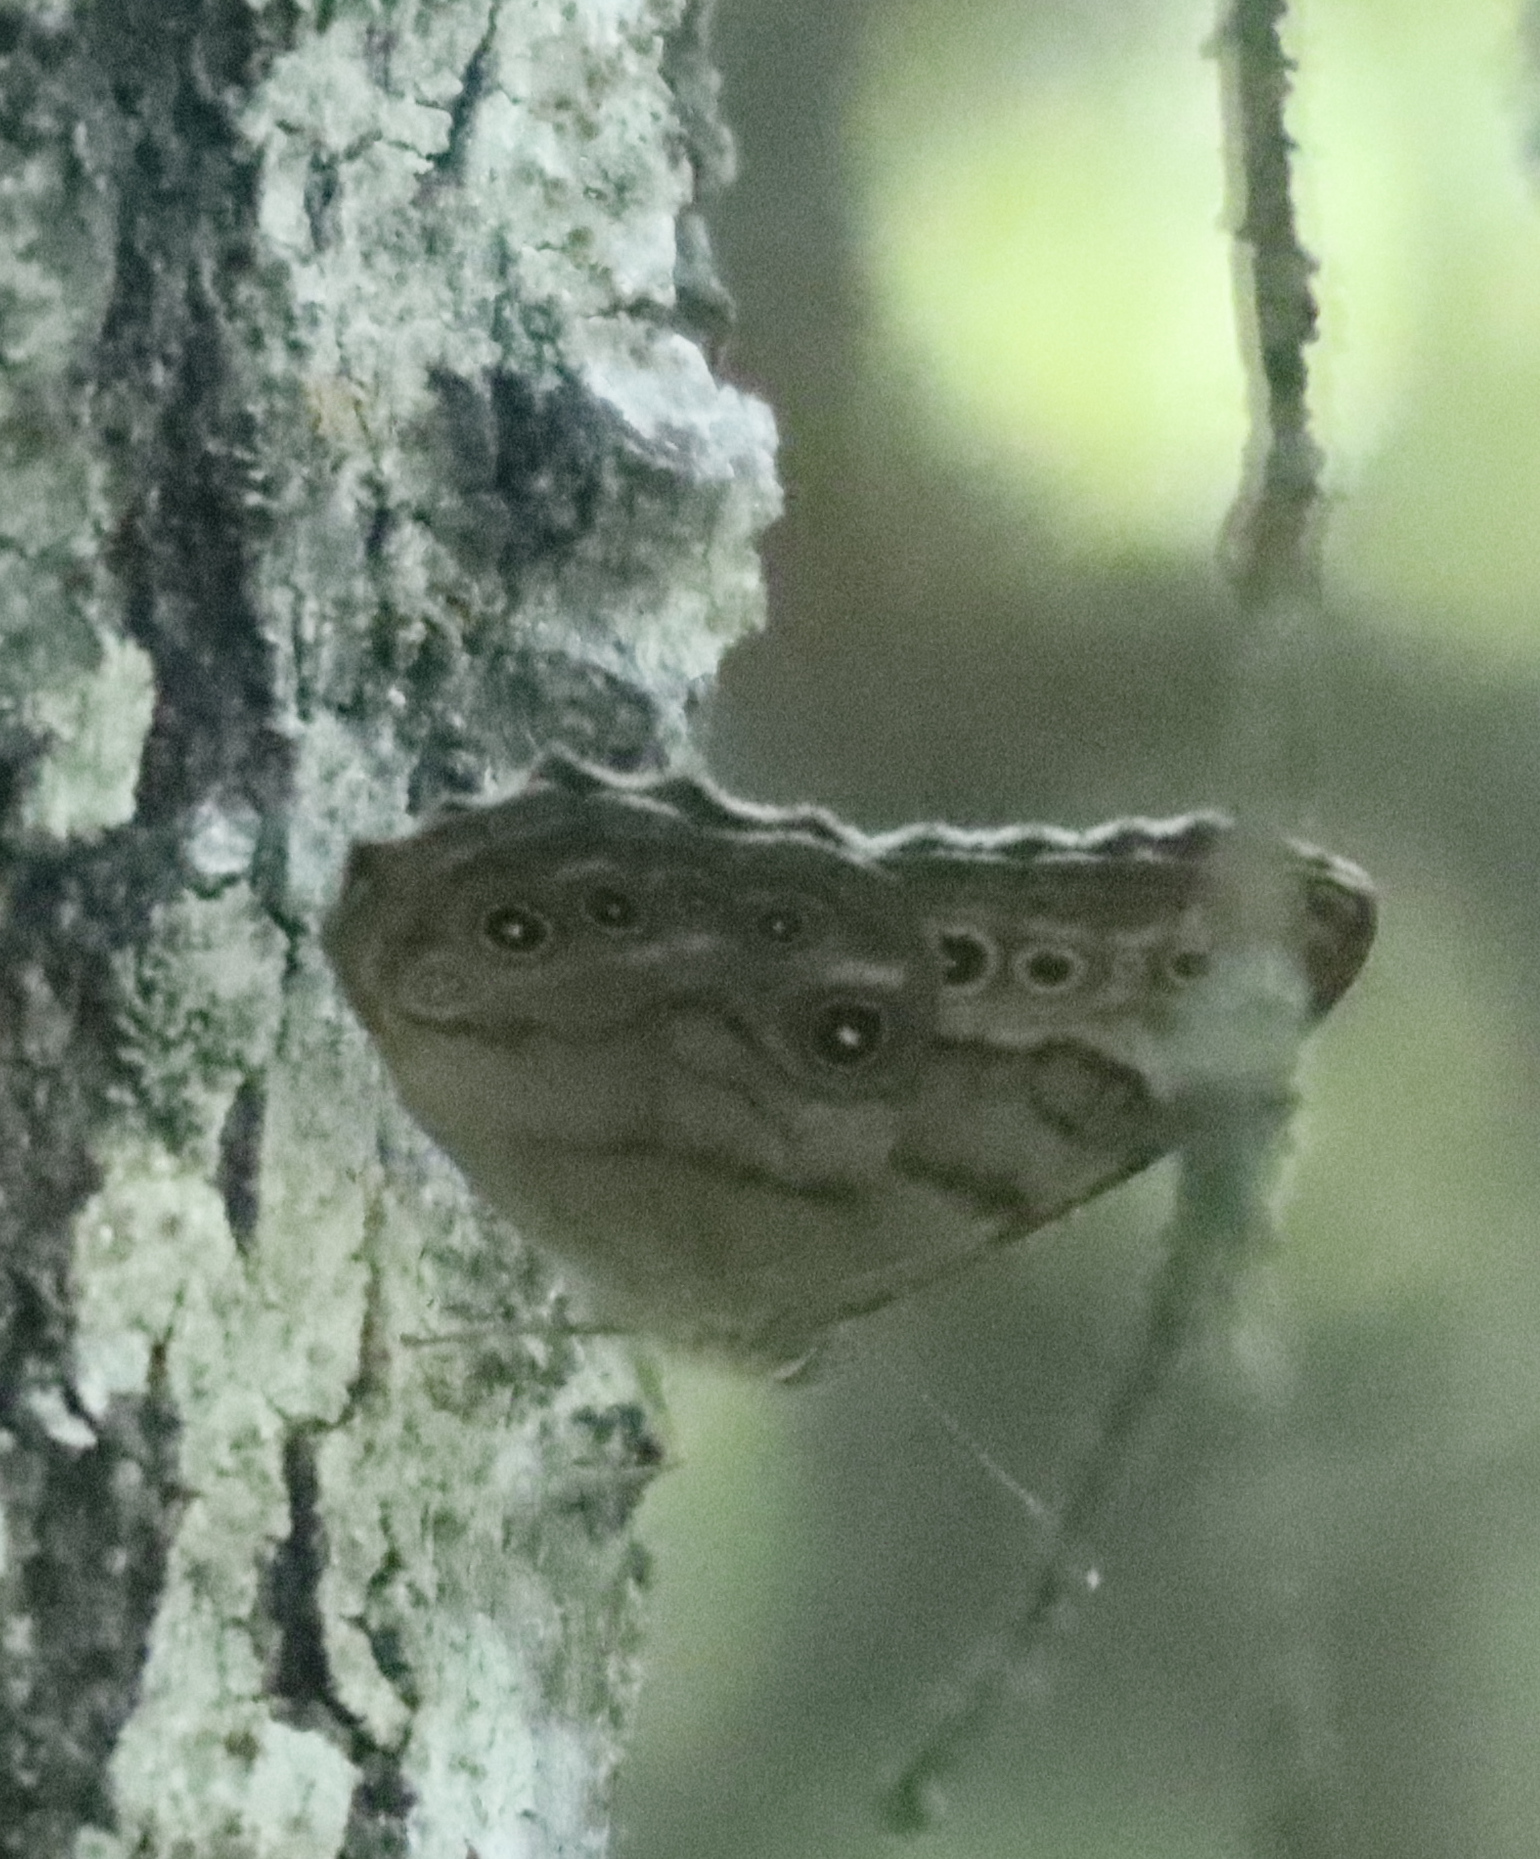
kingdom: Animalia
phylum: Arthropoda
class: Insecta
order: Lepidoptera
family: Nymphalidae
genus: Lethe
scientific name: Lethe anthedon
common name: Northern pearly-eye
